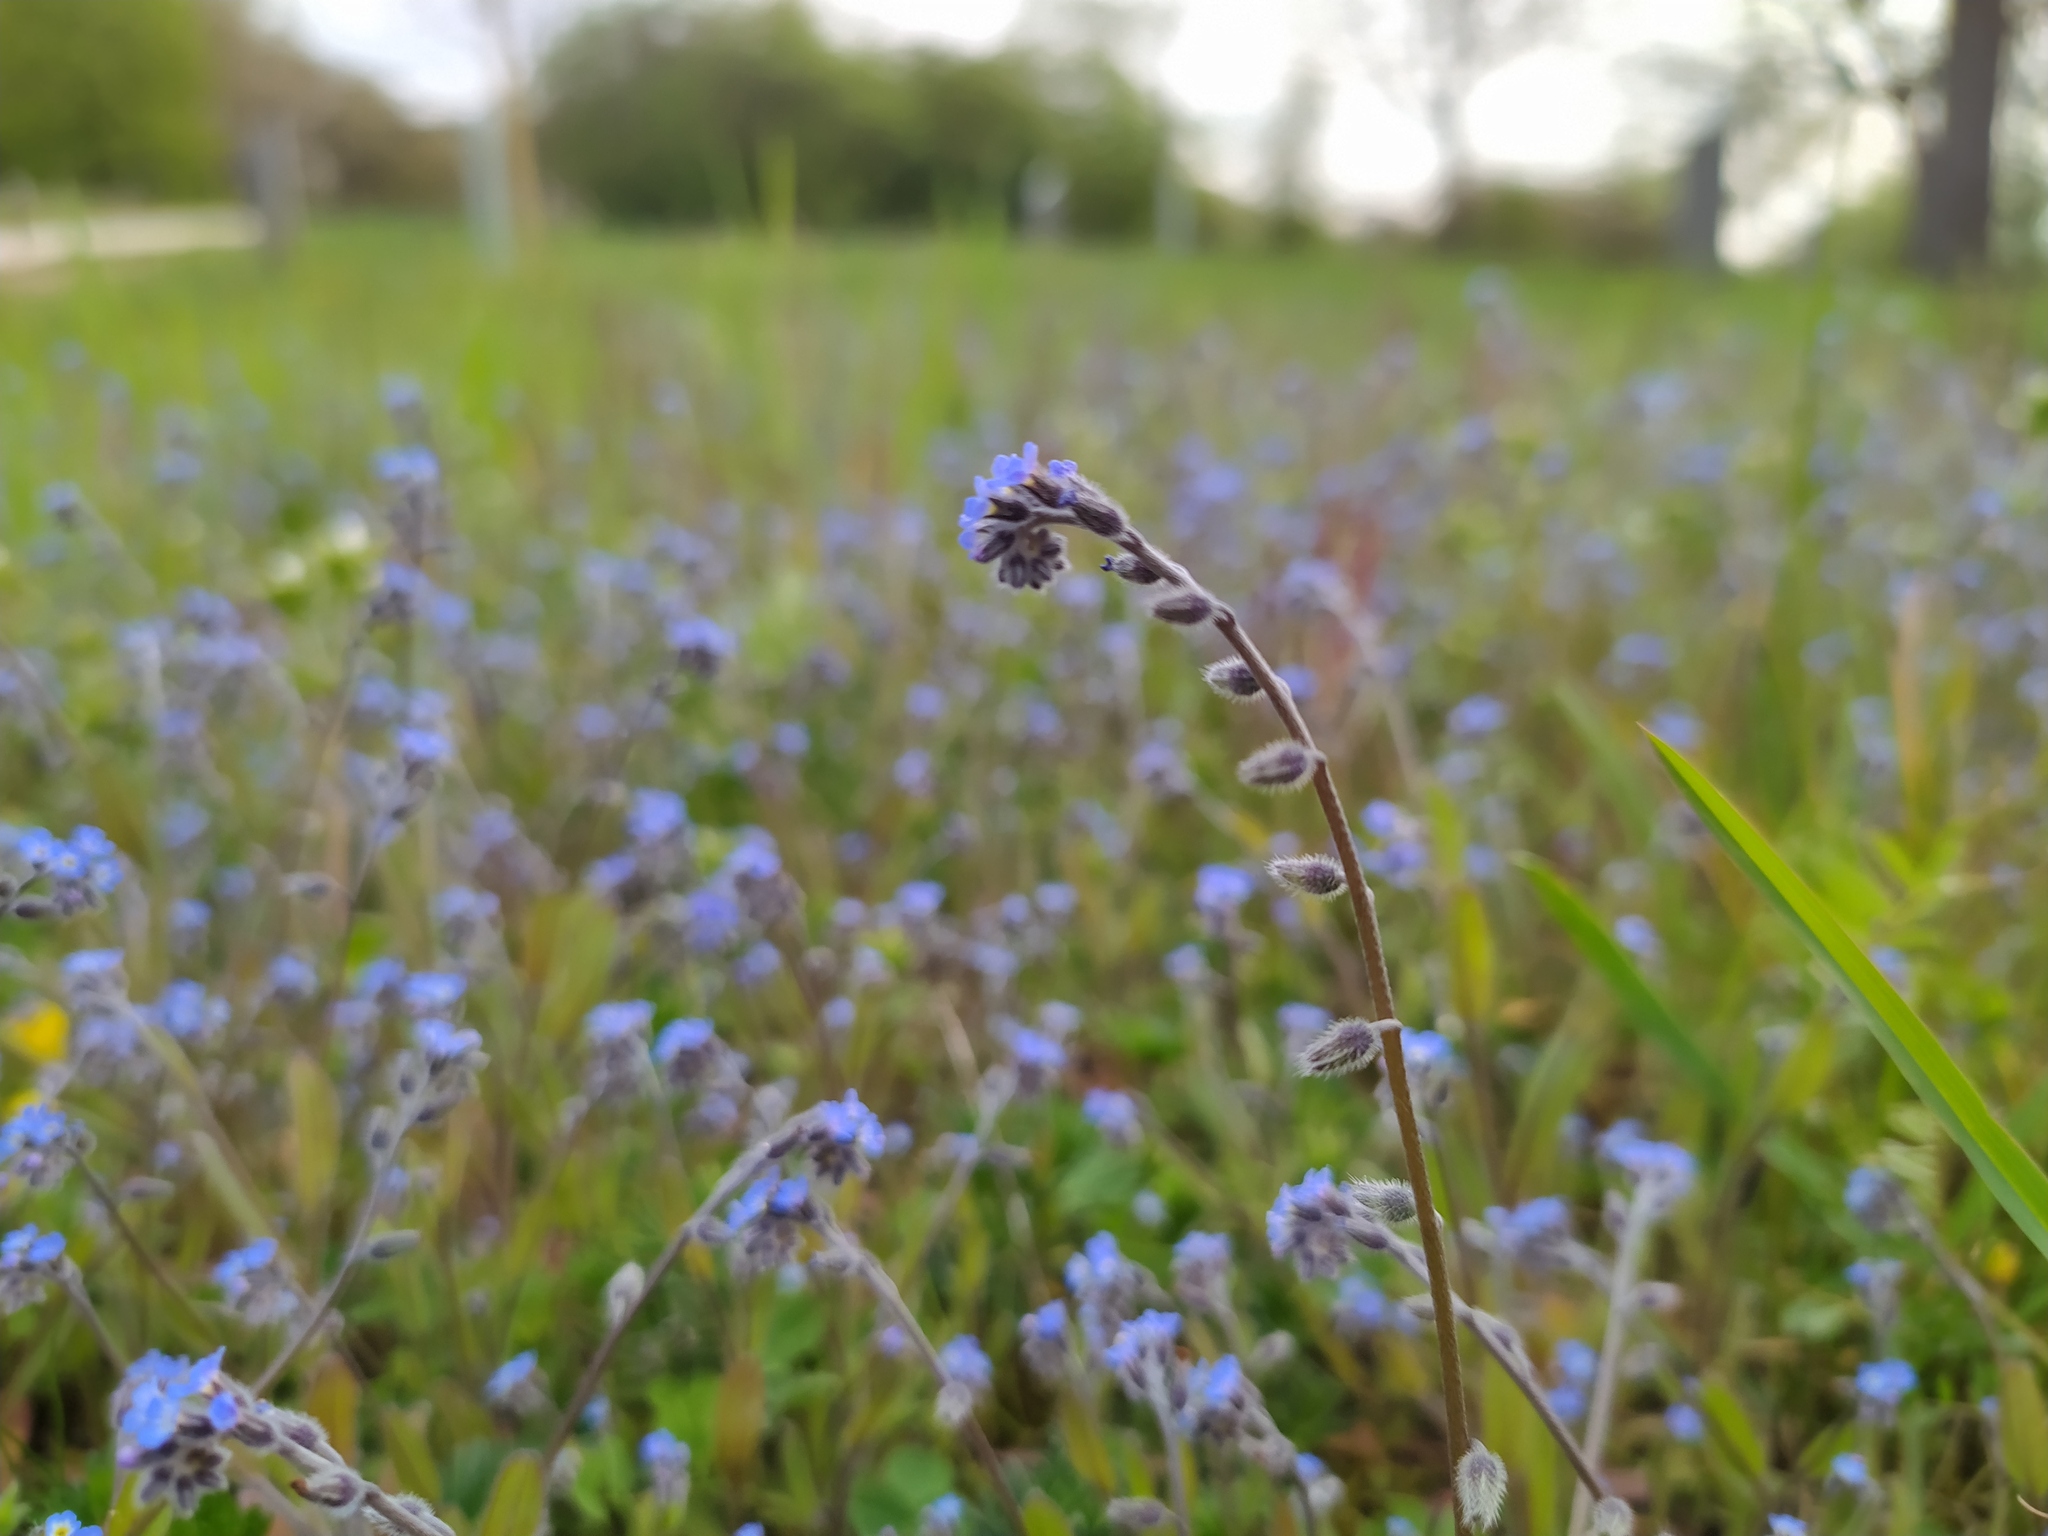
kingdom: Plantae
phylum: Tracheophyta
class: Magnoliopsida
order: Boraginales
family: Boraginaceae
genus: Myosotis
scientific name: Myosotis ramosissima
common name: Early forget-me-not
